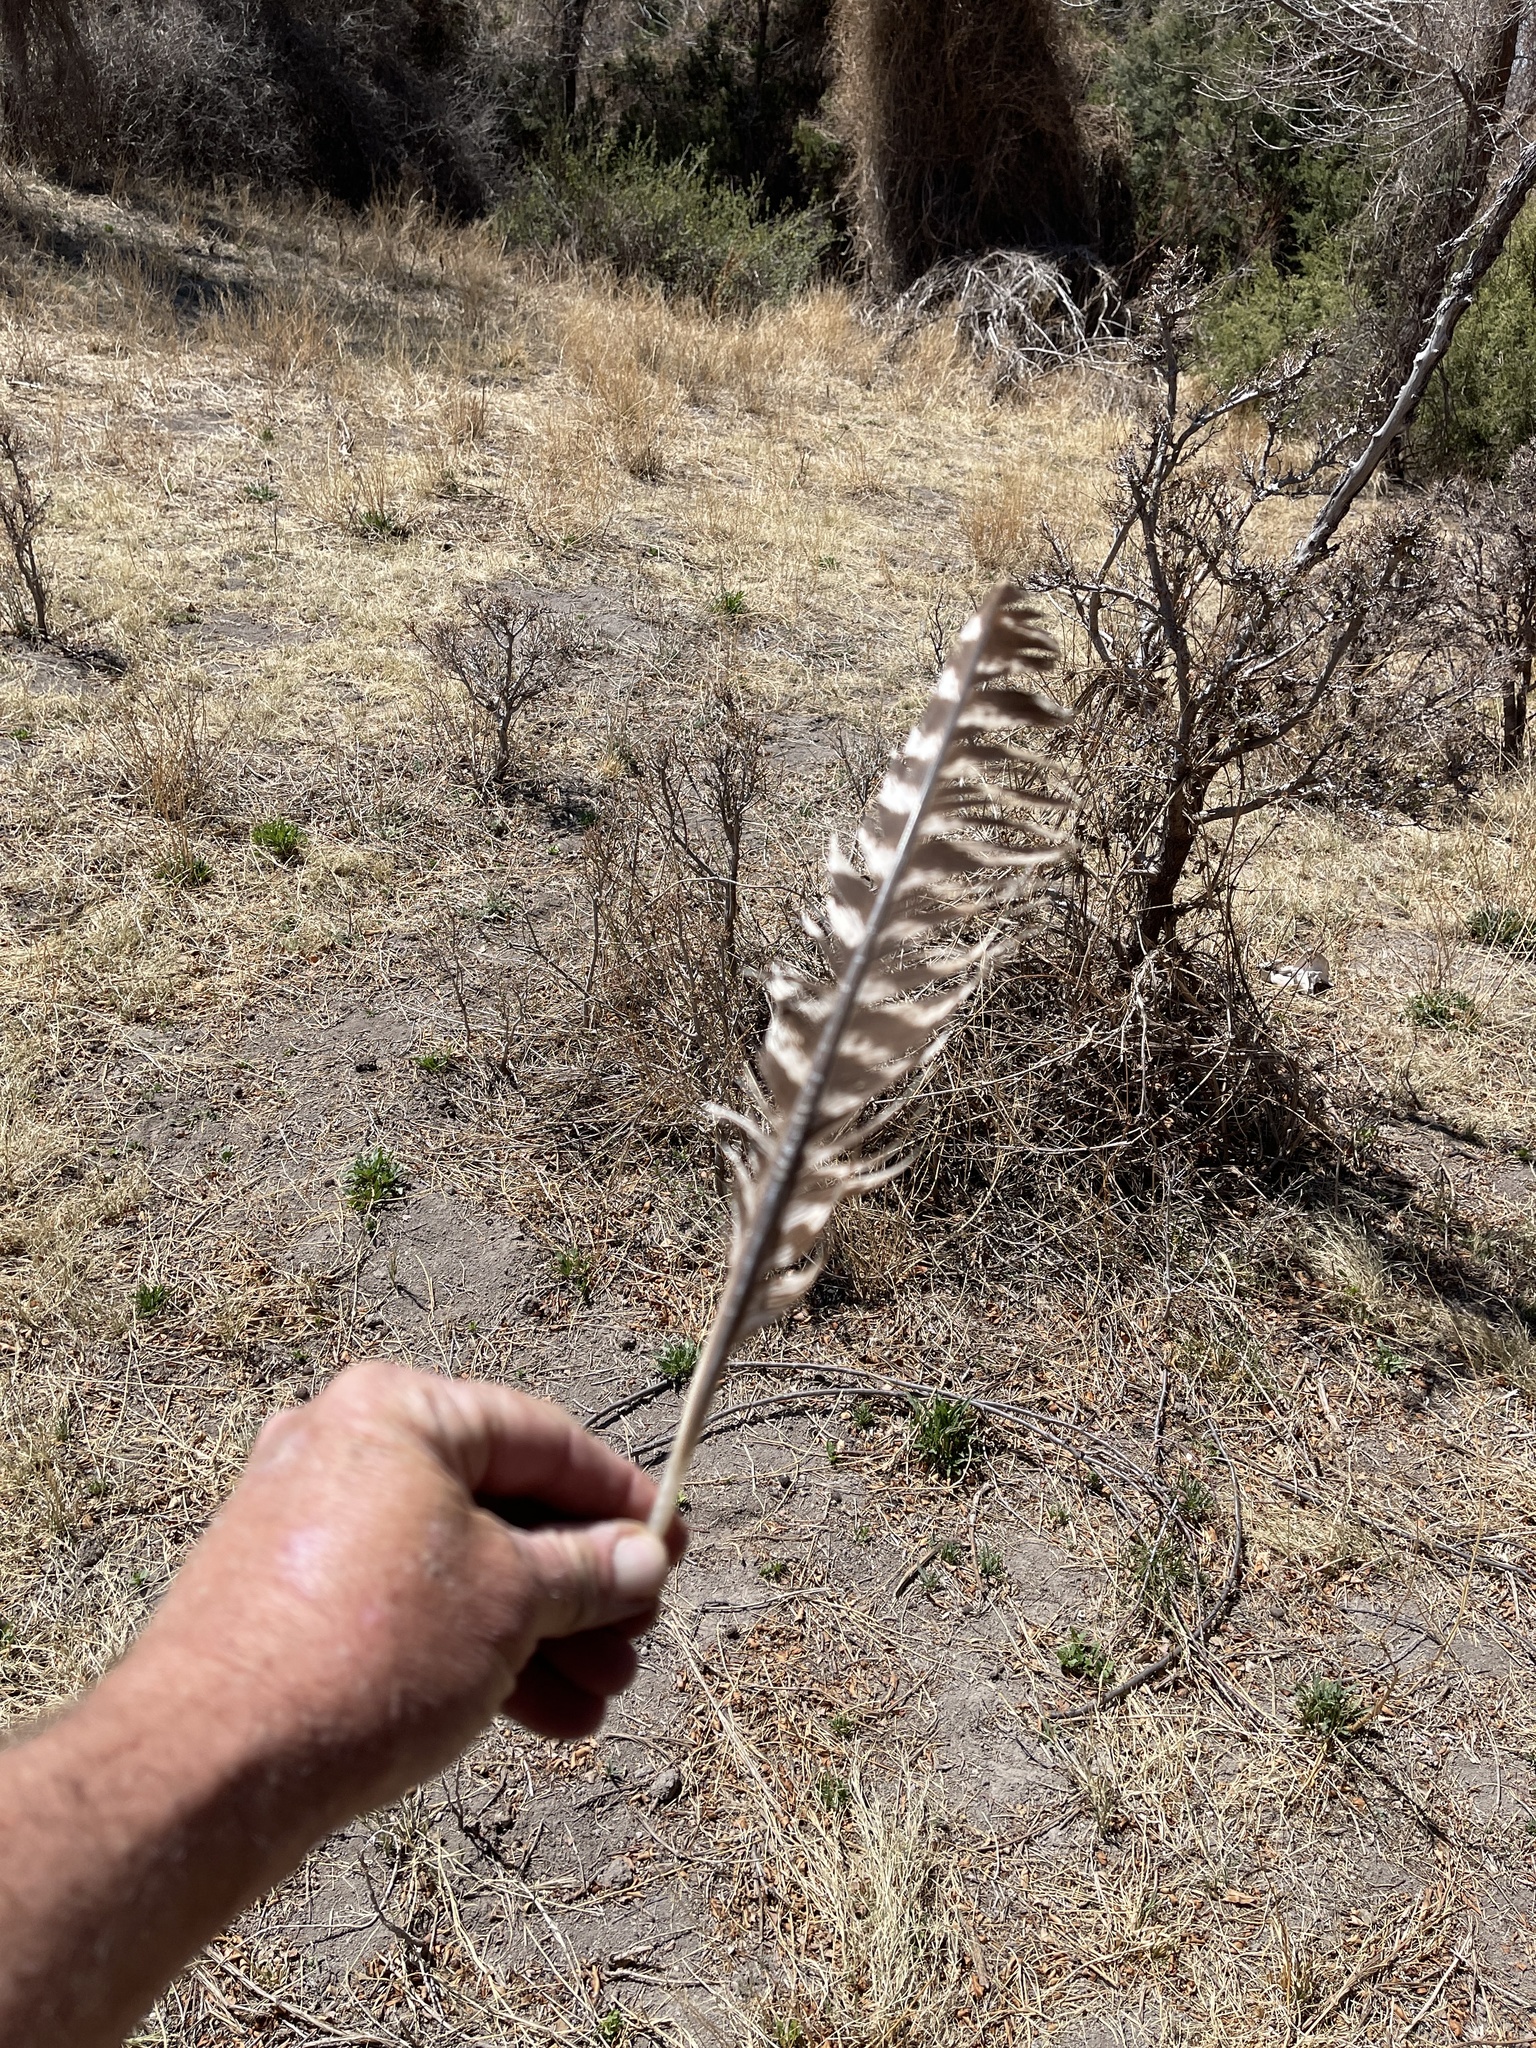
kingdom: Animalia
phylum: Chordata
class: Aves
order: Galliformes
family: Phasianidae
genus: Meleagris
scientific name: Meleagris gallopavo
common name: Wild turkey
